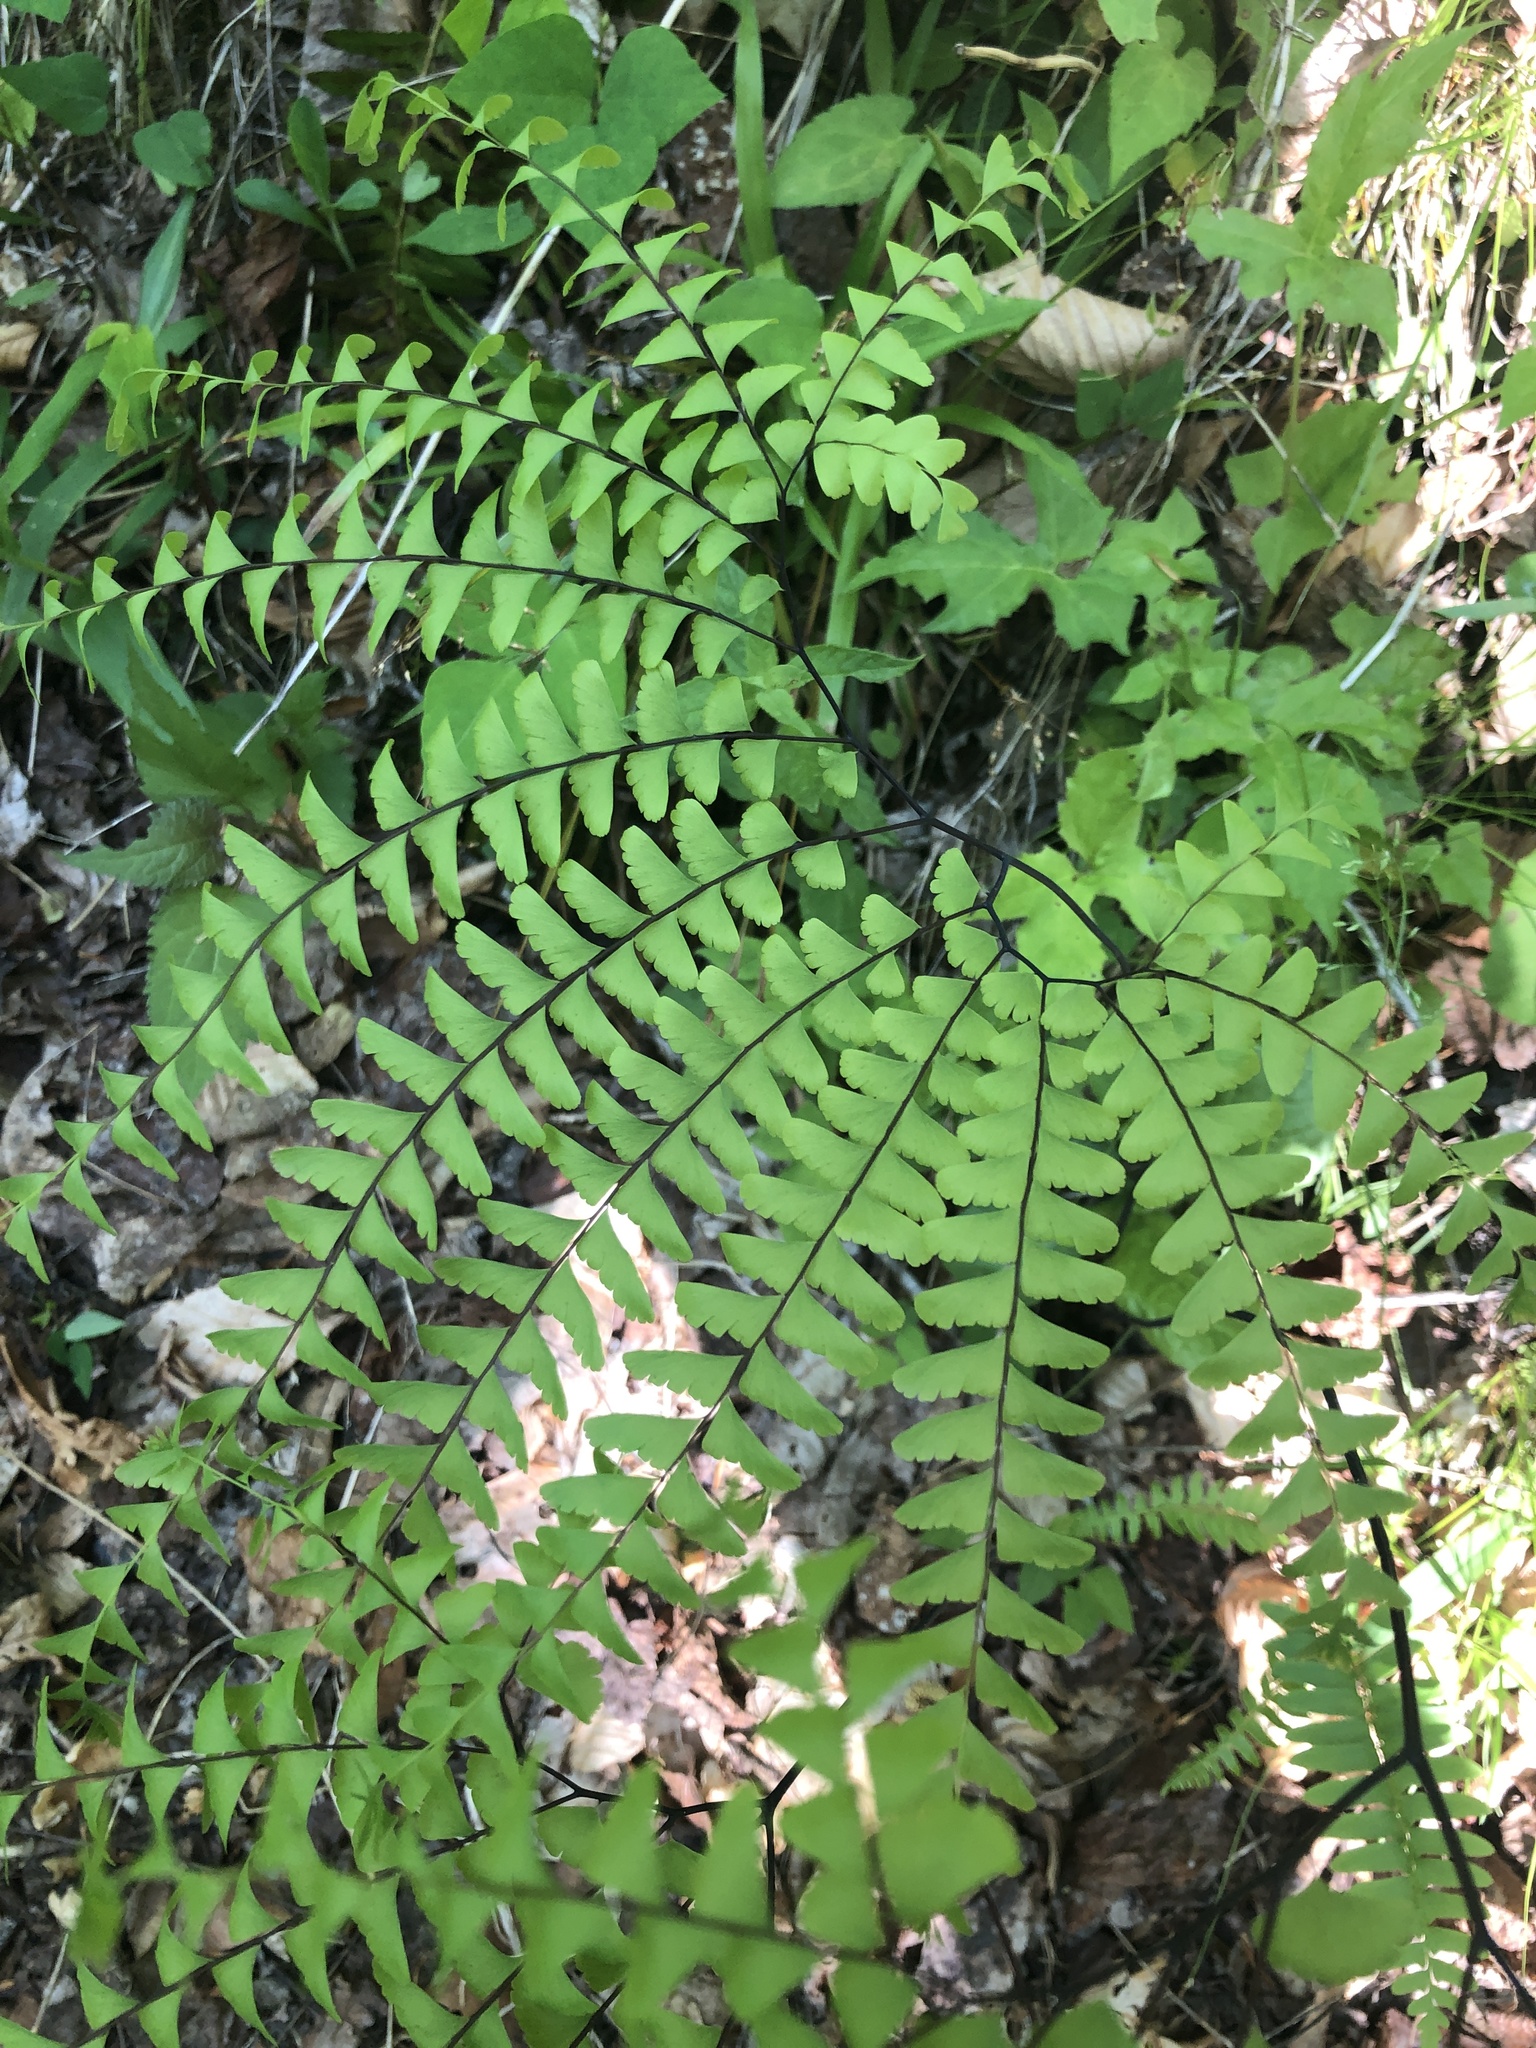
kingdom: Plantae
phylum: Tracheophyta
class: Polypodiopsida
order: Polypodiales
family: Pteridaceae
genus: Adiantum
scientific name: Adiantum pedatum
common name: Five-finger fern
